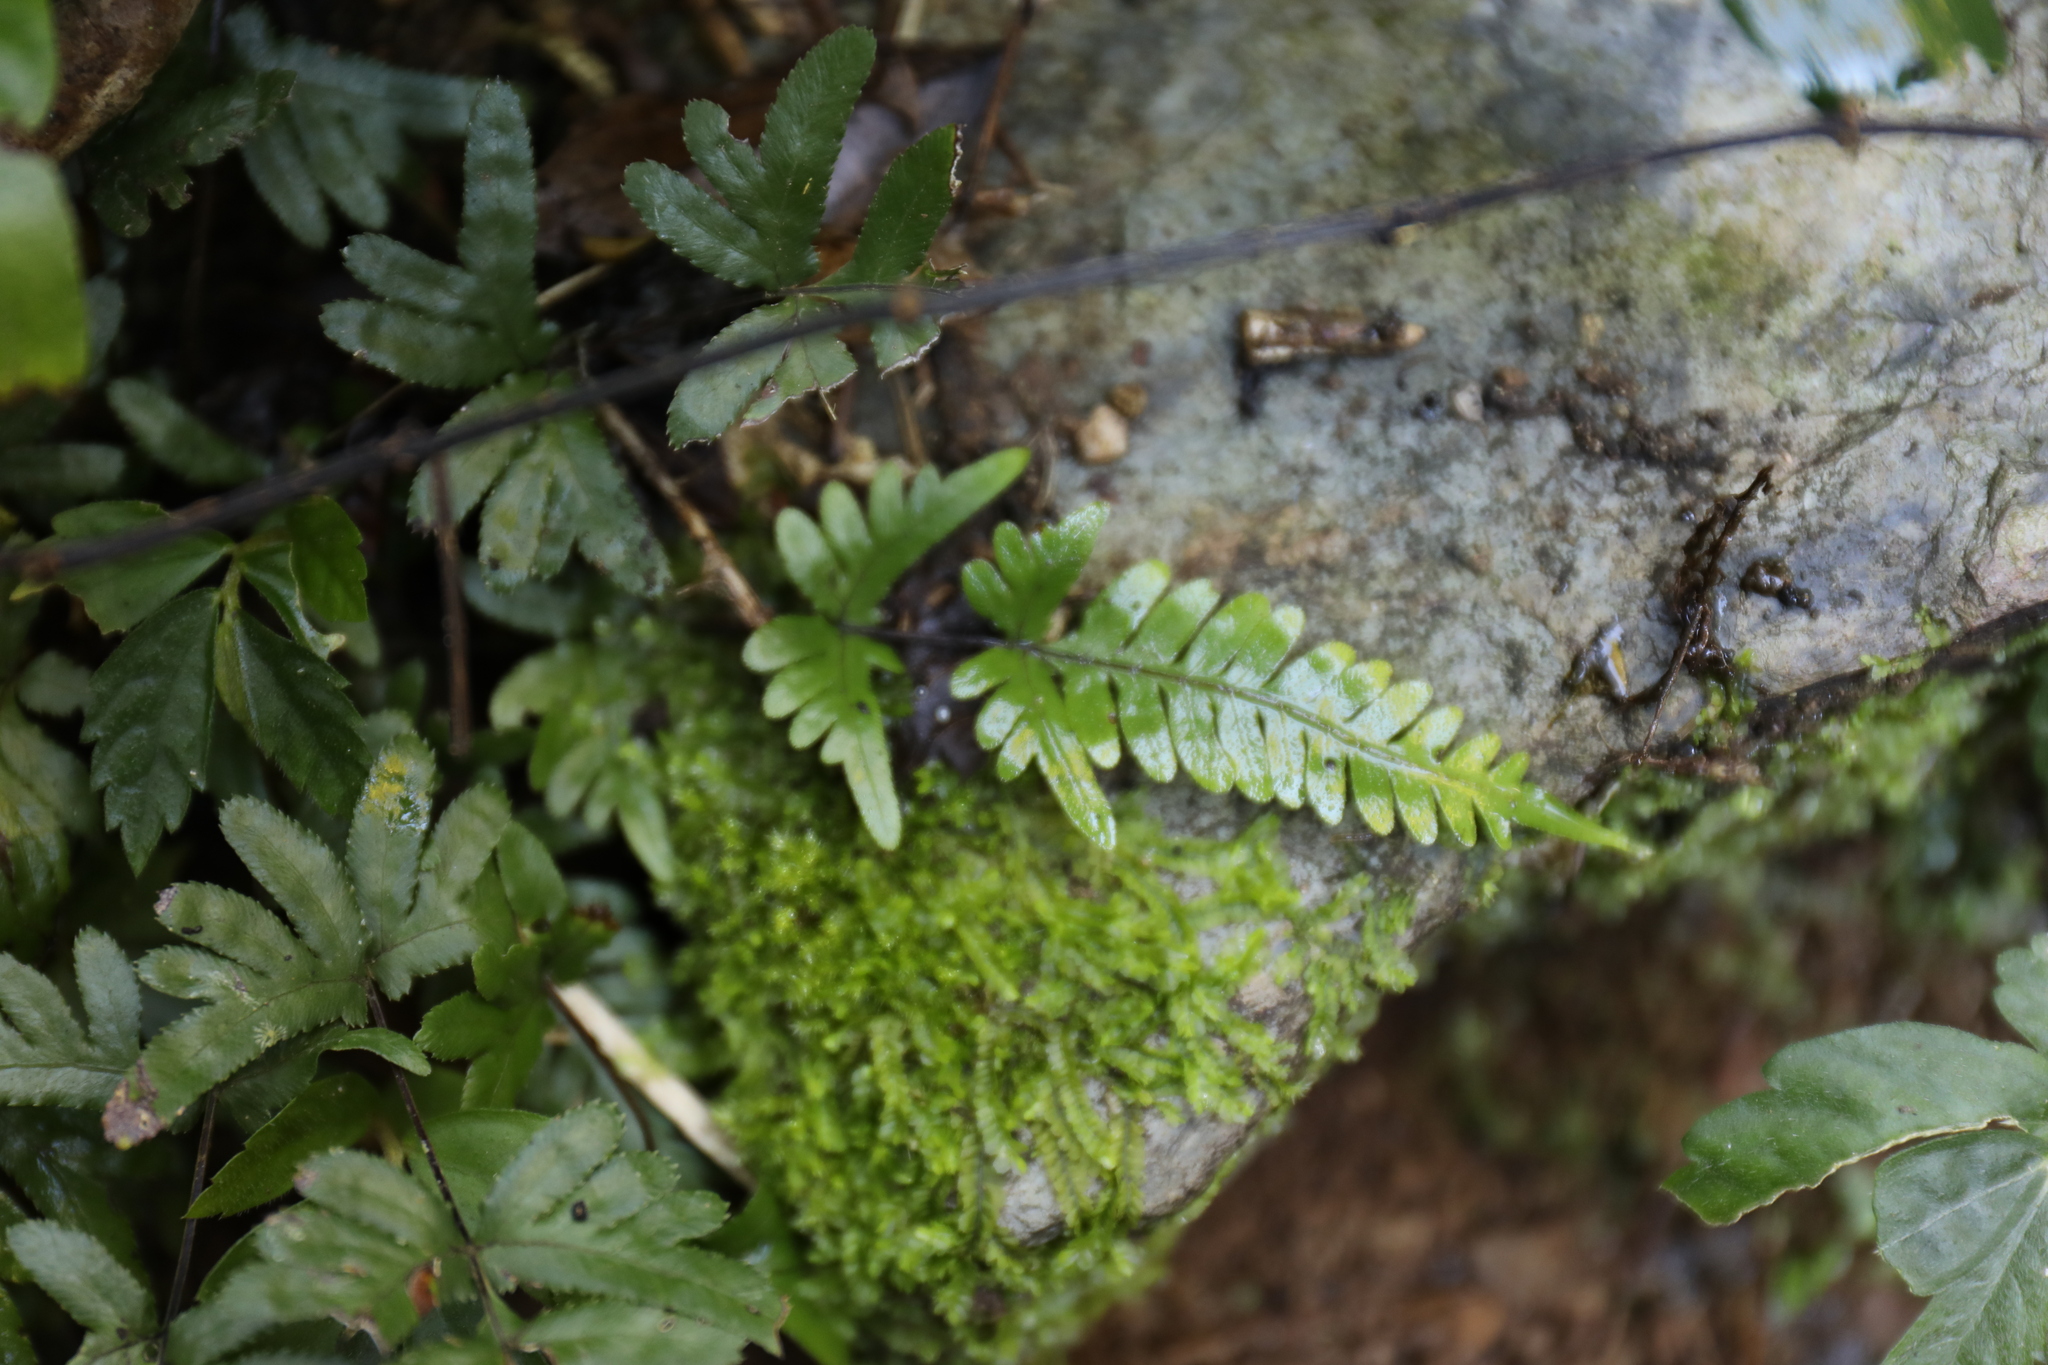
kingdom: Plantae
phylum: Tracheophyta
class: Polypodiopsida
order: Polypodiales
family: Pteridaceae
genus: Pteris
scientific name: Pteris dispar
